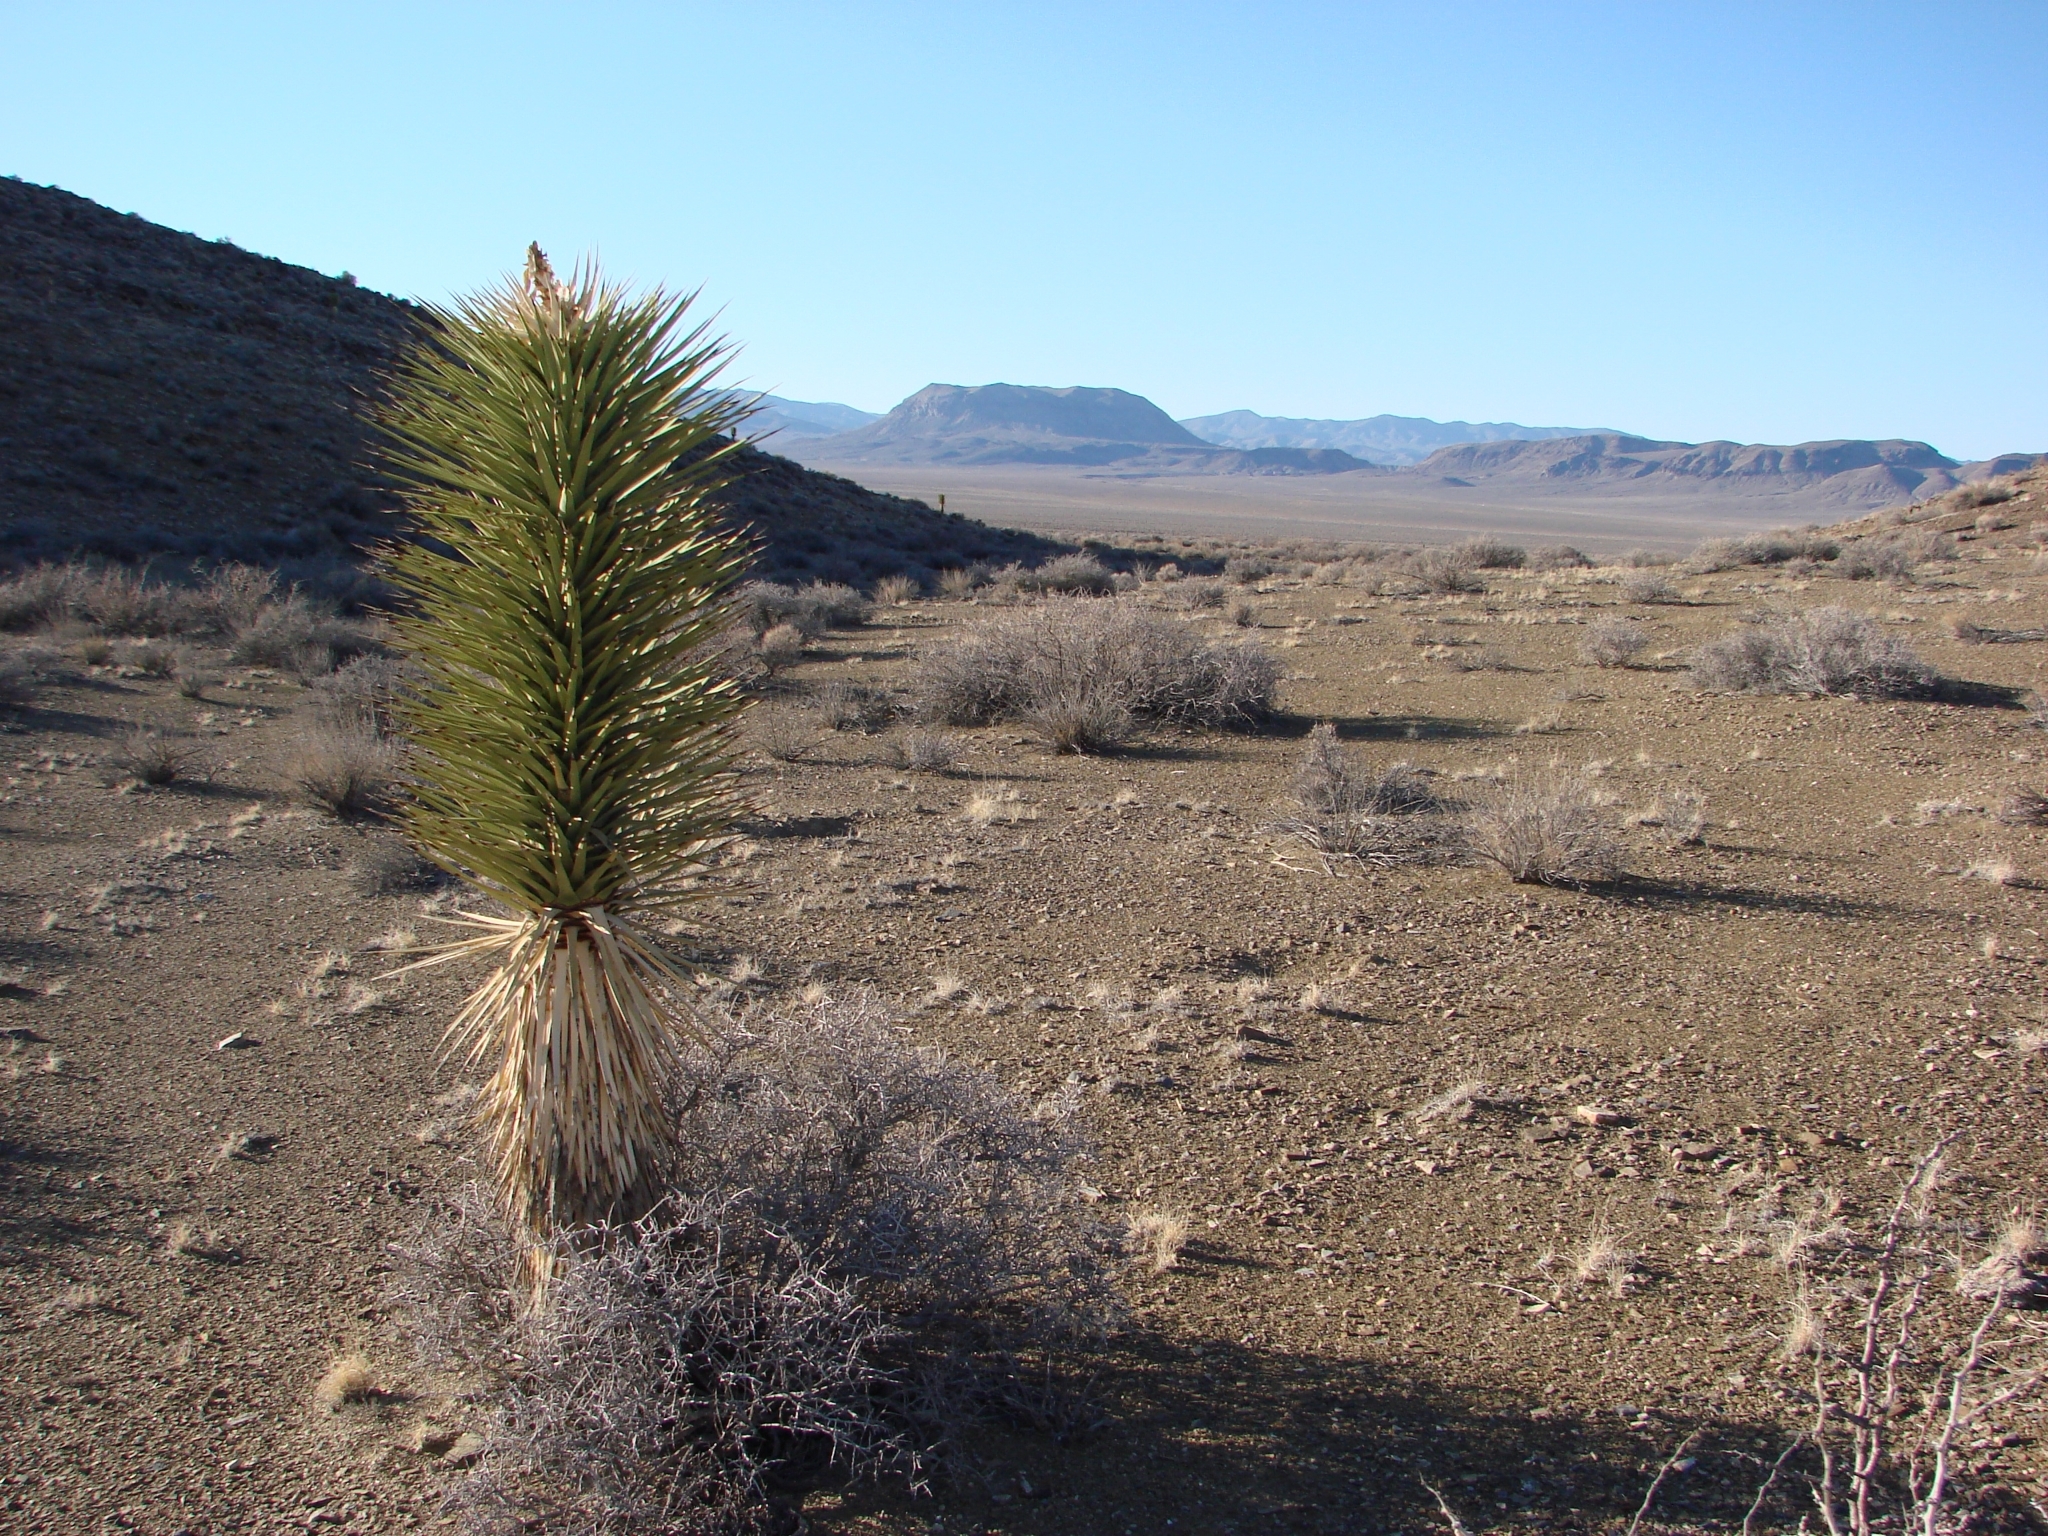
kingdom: Plantae
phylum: Tracheophyta
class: Liliopsida
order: Asparagales
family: Asparagaceae
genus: Yucca
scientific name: Yucca brevifolia
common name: Joshua tree
